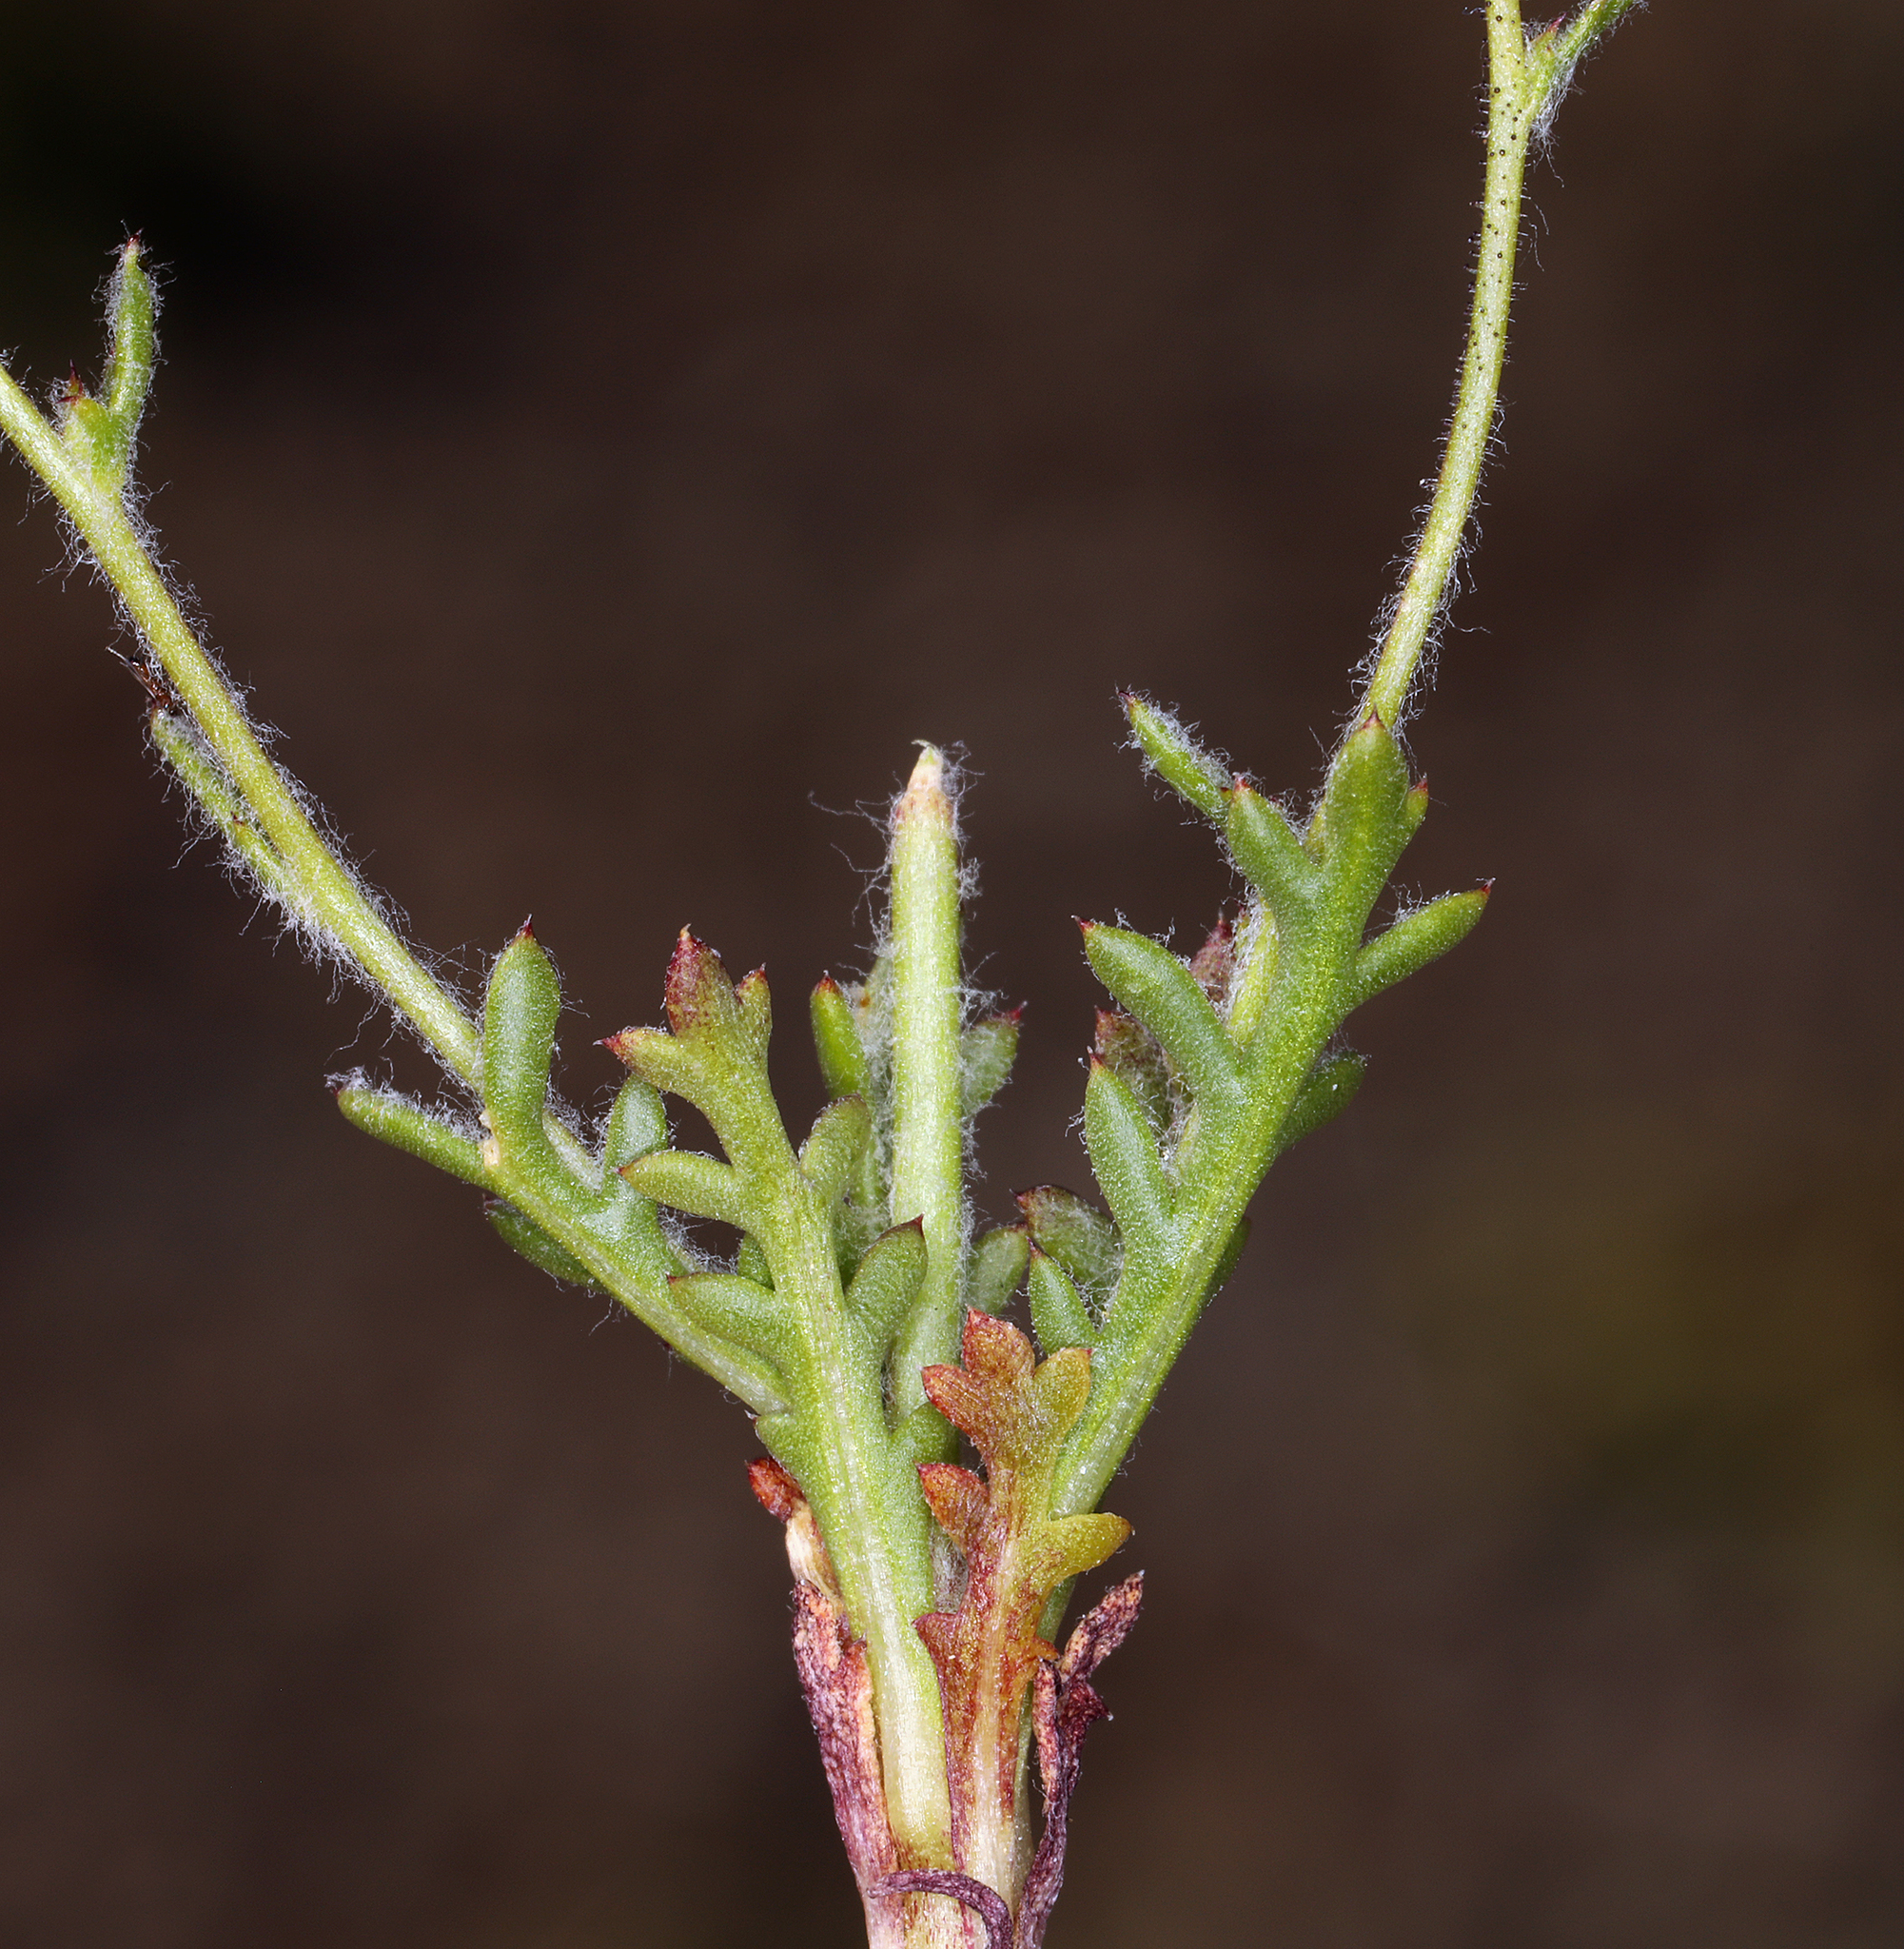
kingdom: Plantae
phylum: Tracheophyta
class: Magnoliopsida
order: Ericales
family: Polemoniaceae
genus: Gilia
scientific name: Gilia transmontana
